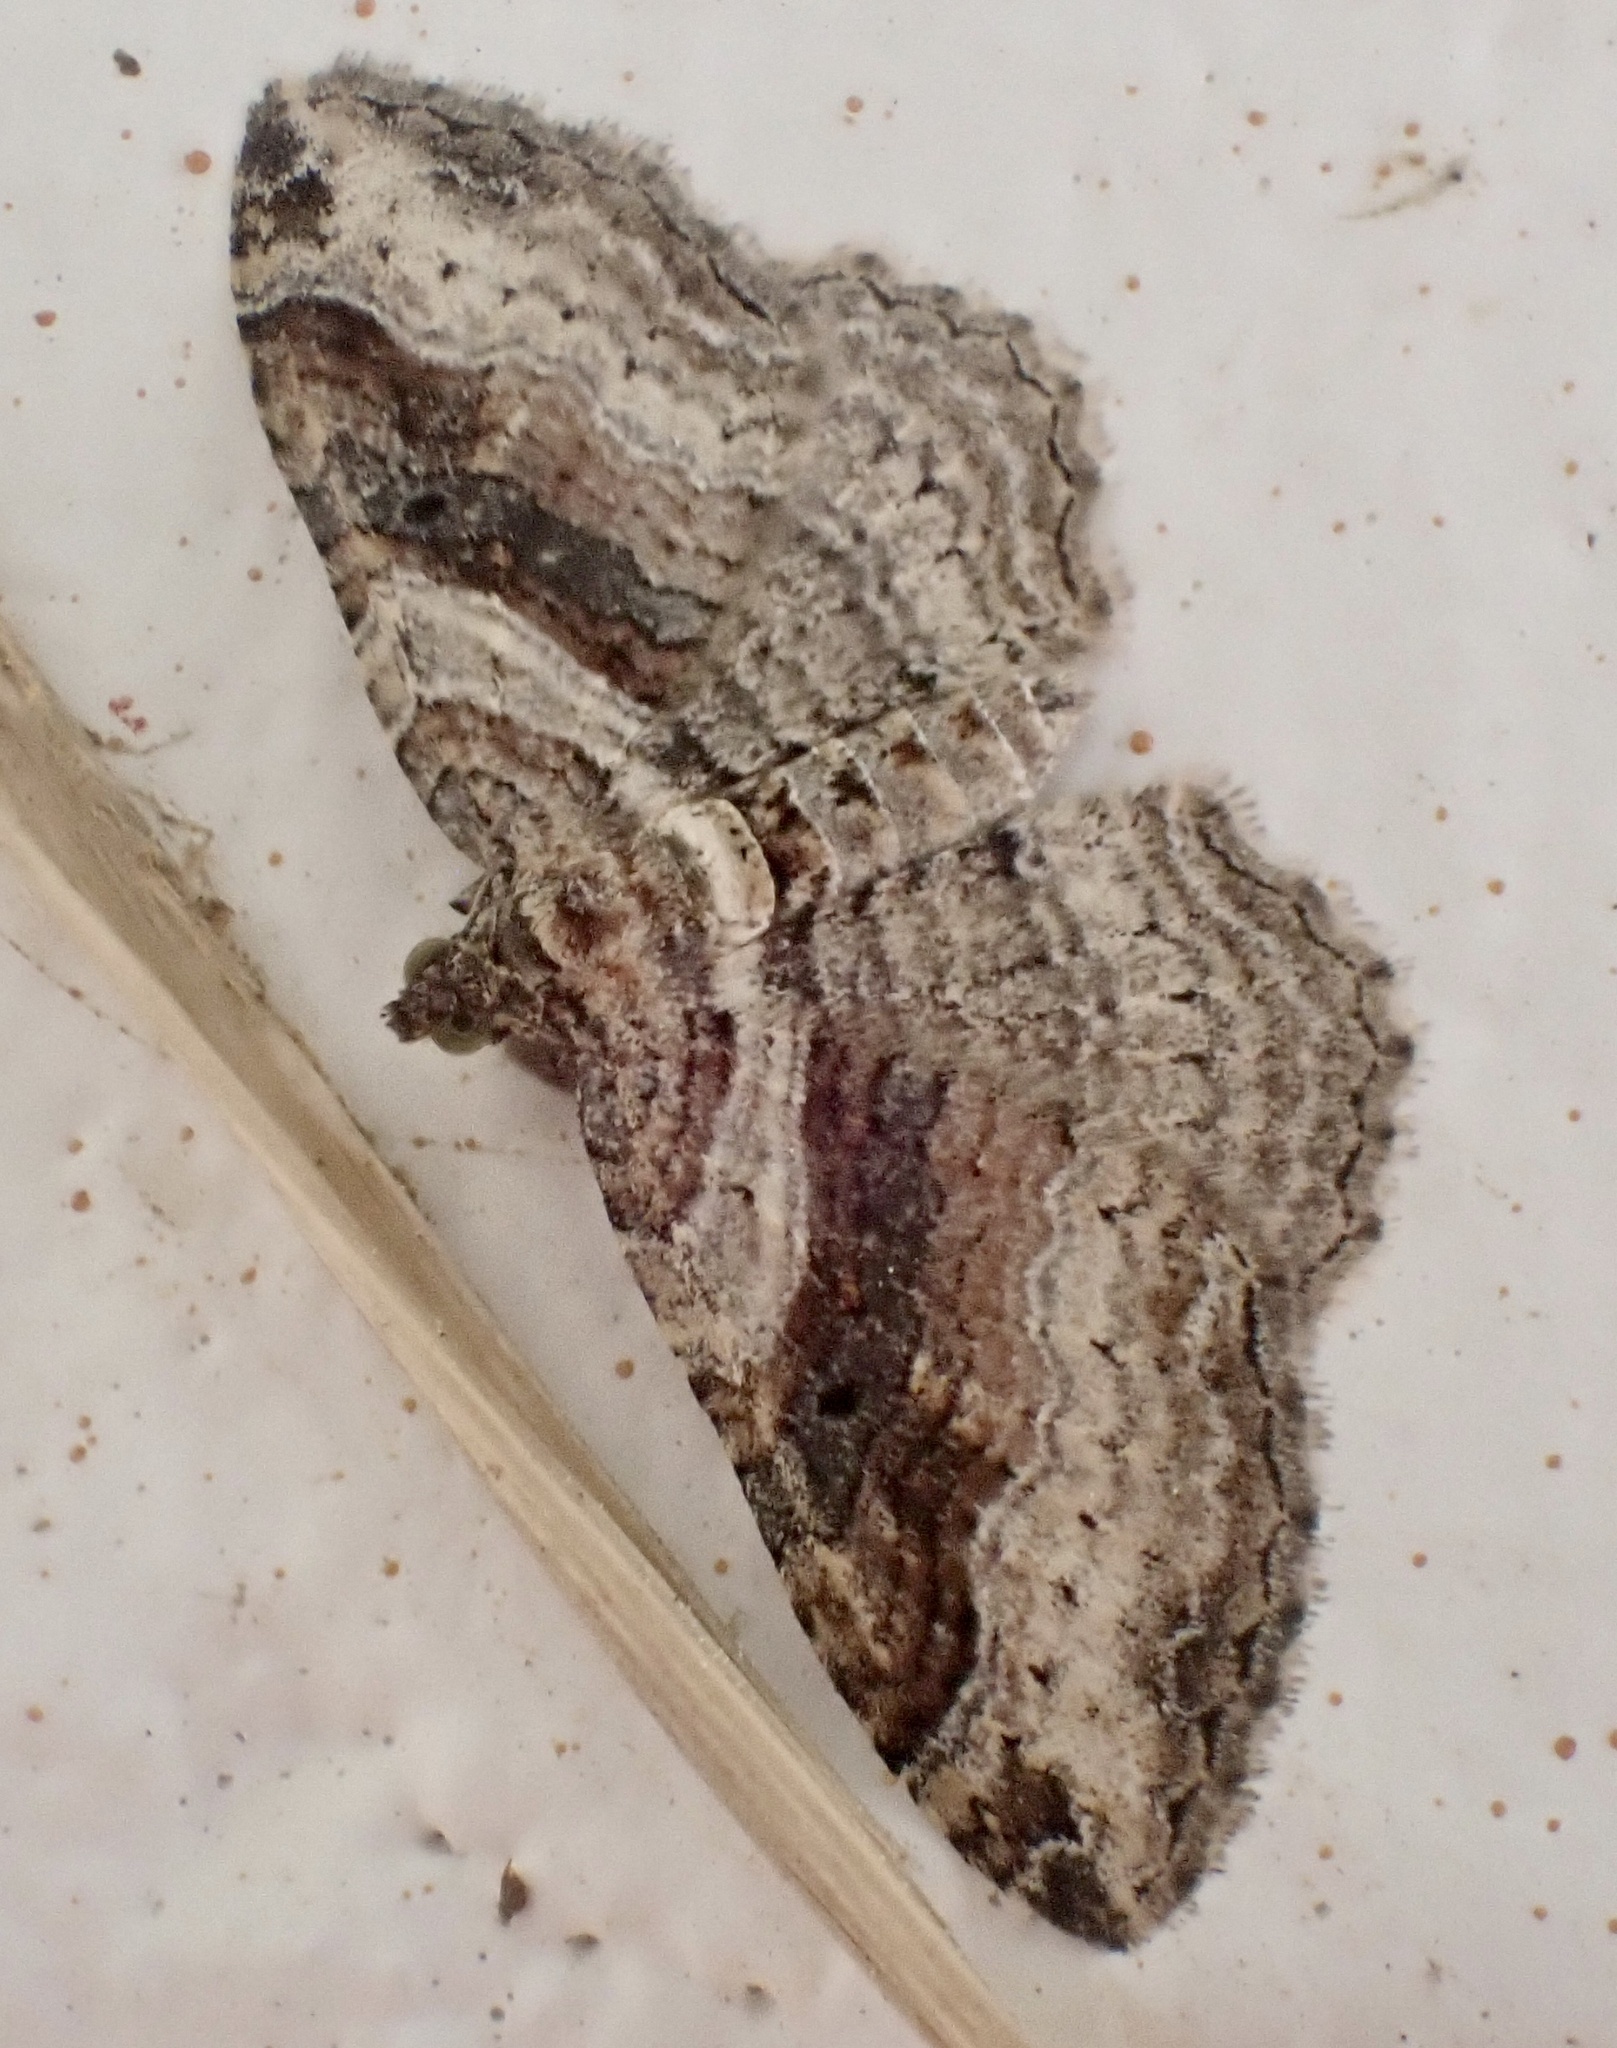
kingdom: Animalia
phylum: Arthropoda
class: Insecta
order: Lepidoptera
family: Geometridae
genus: Costaconvexa
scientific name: Costaconvexa centrostrigaria
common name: Bent-line carpet
